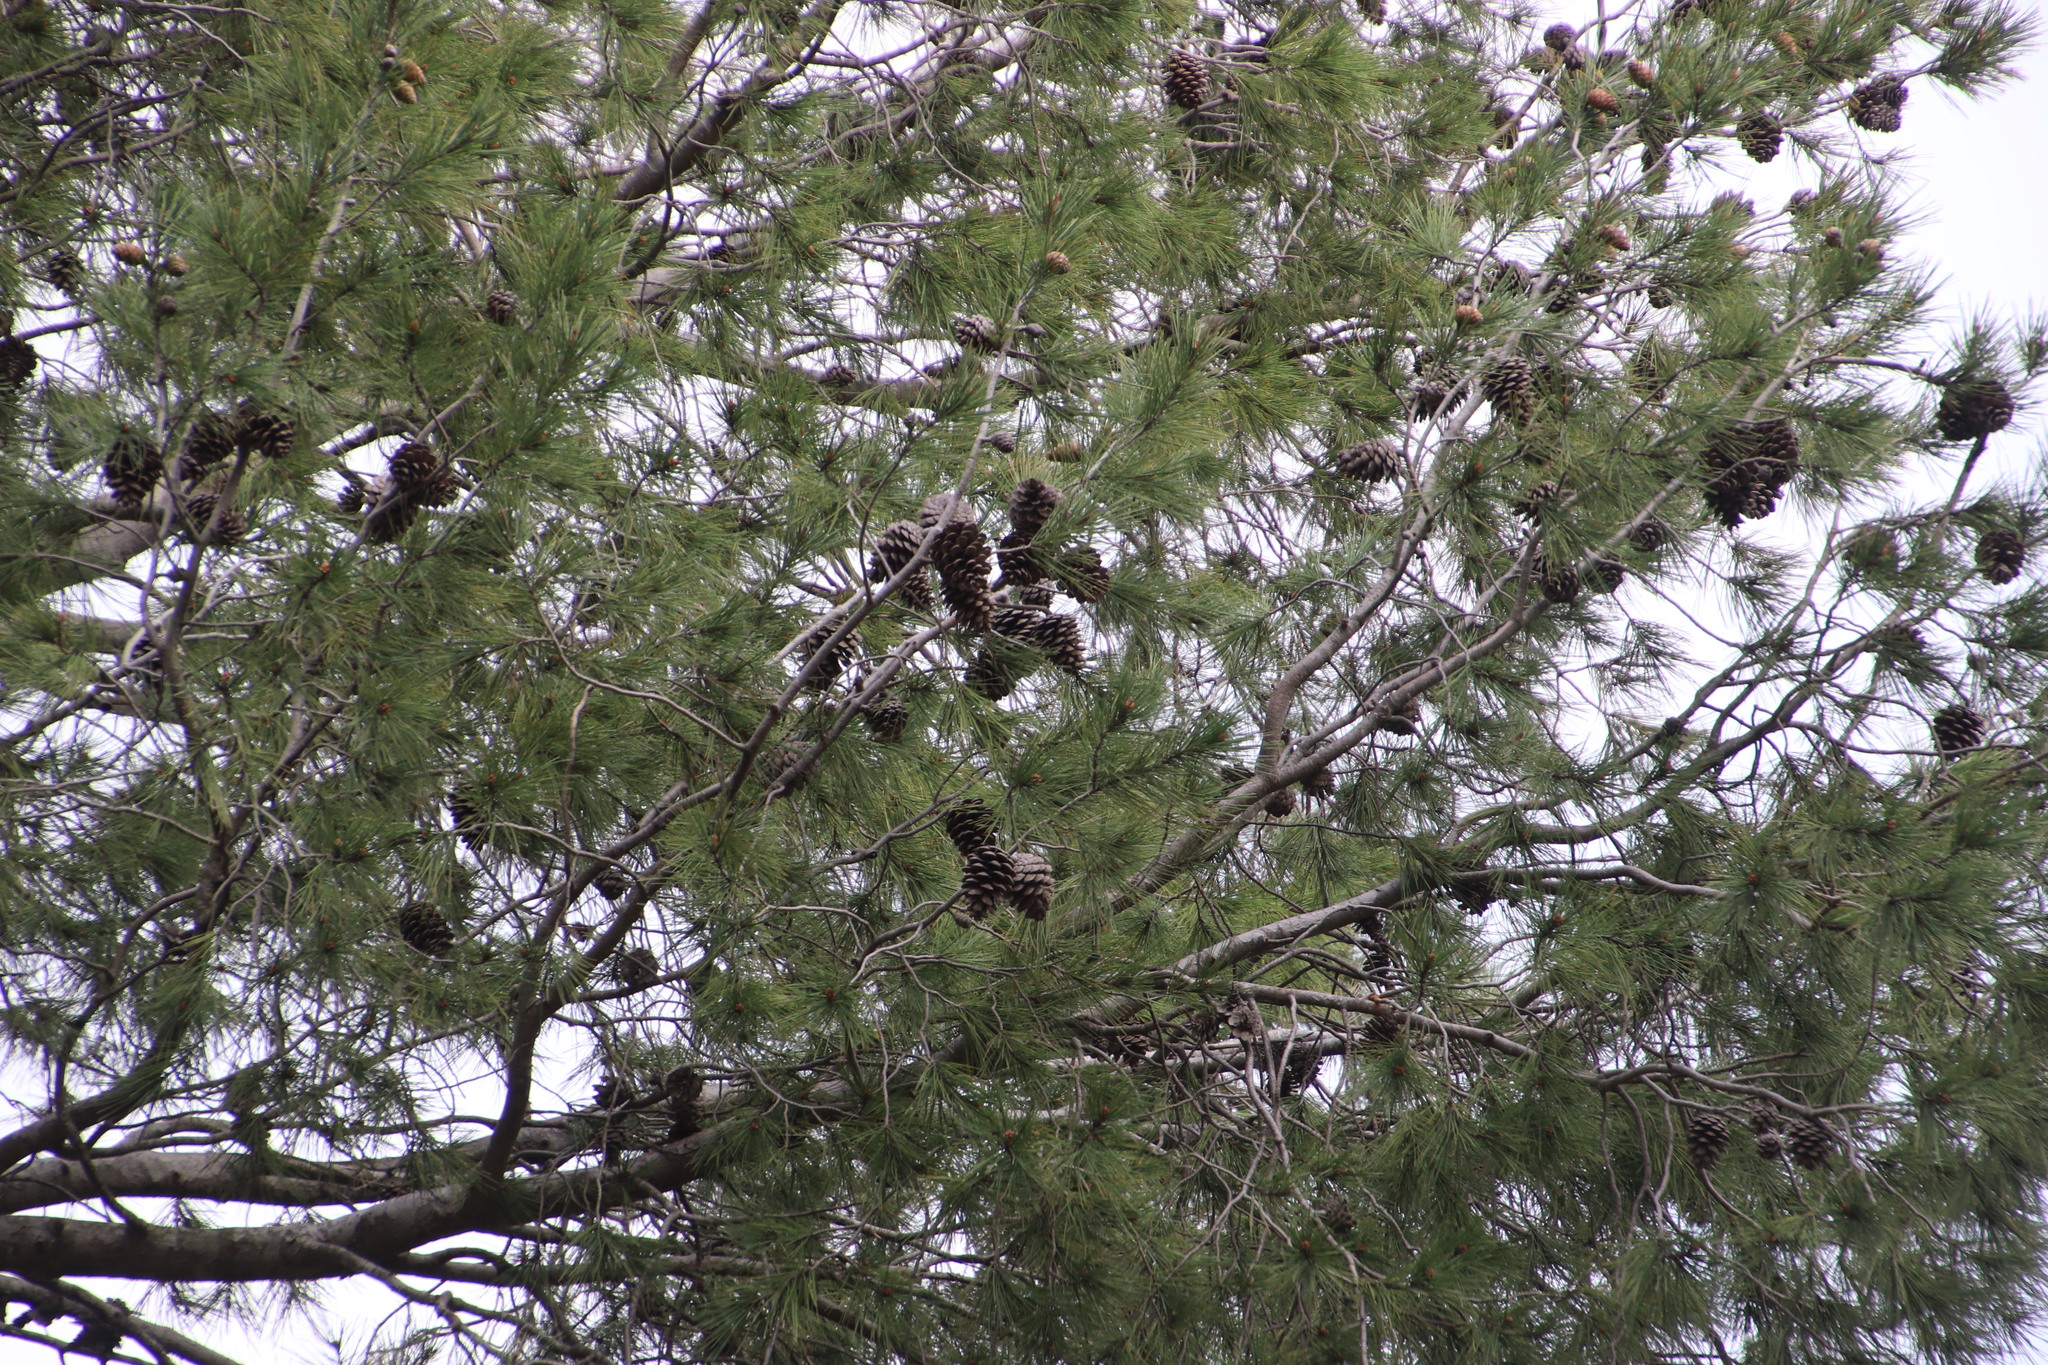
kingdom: Plantae
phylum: Tracheophyta
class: Pinopsida
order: Pinales
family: Pinaceae
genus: Pinus
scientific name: Pinus halepensis
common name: Aleppo pine
